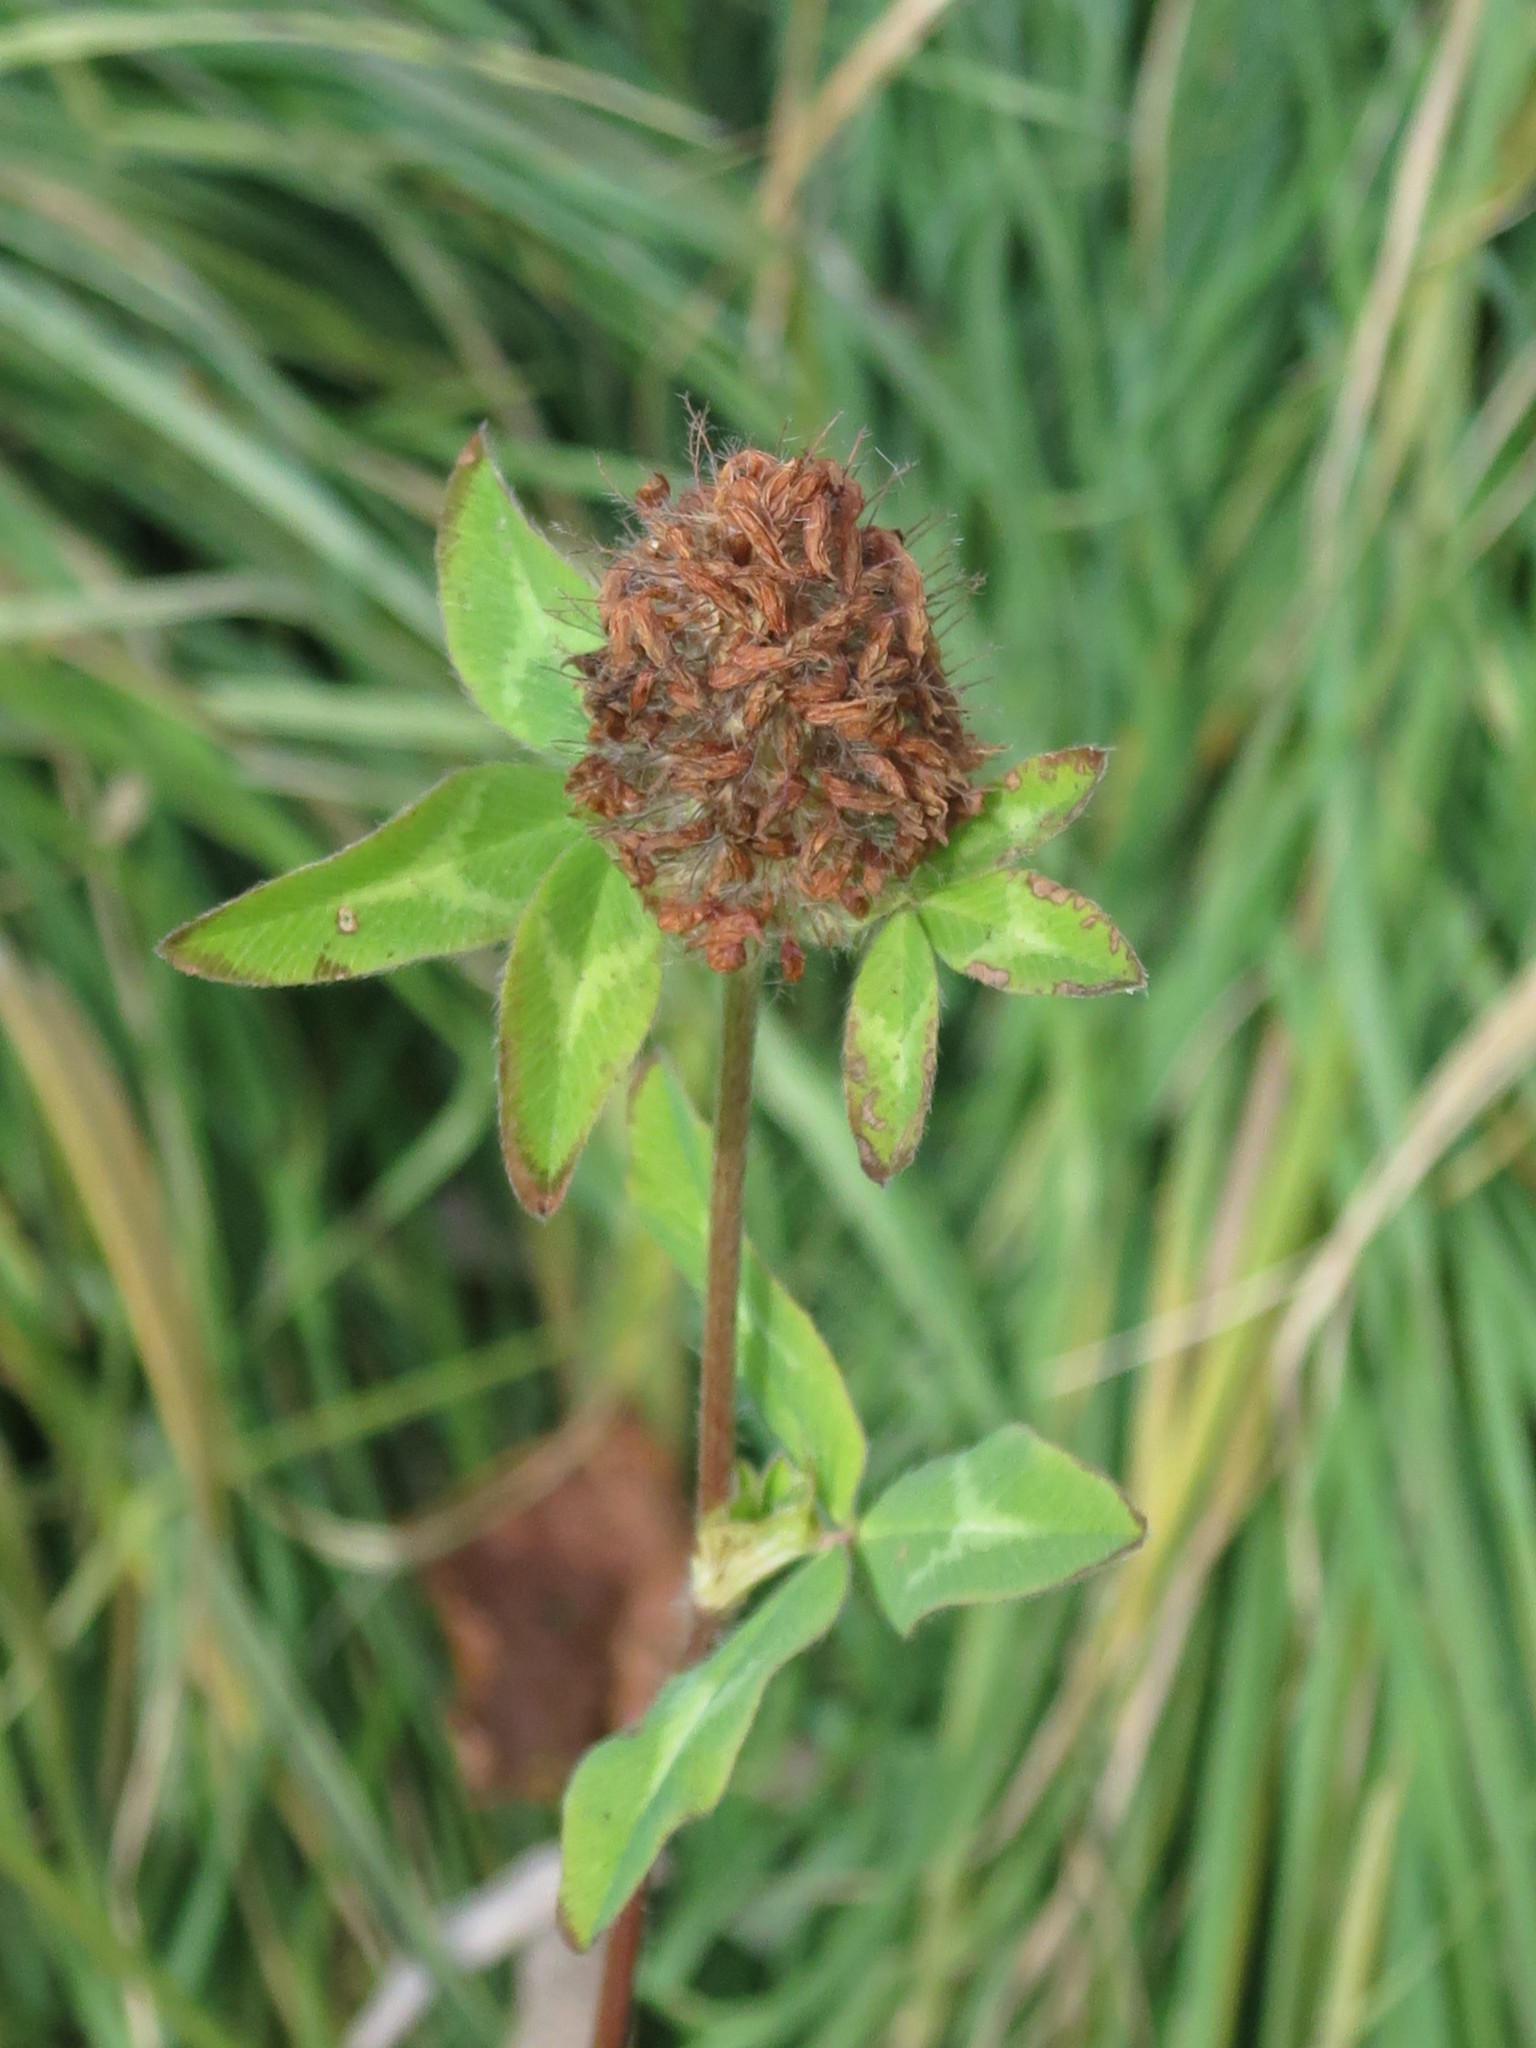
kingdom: Plantae
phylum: Tracheophyta
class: Magnoliopsida
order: Fabales
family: Fabaceae
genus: Trifolium
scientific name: Trifolium pratense
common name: Red clover
